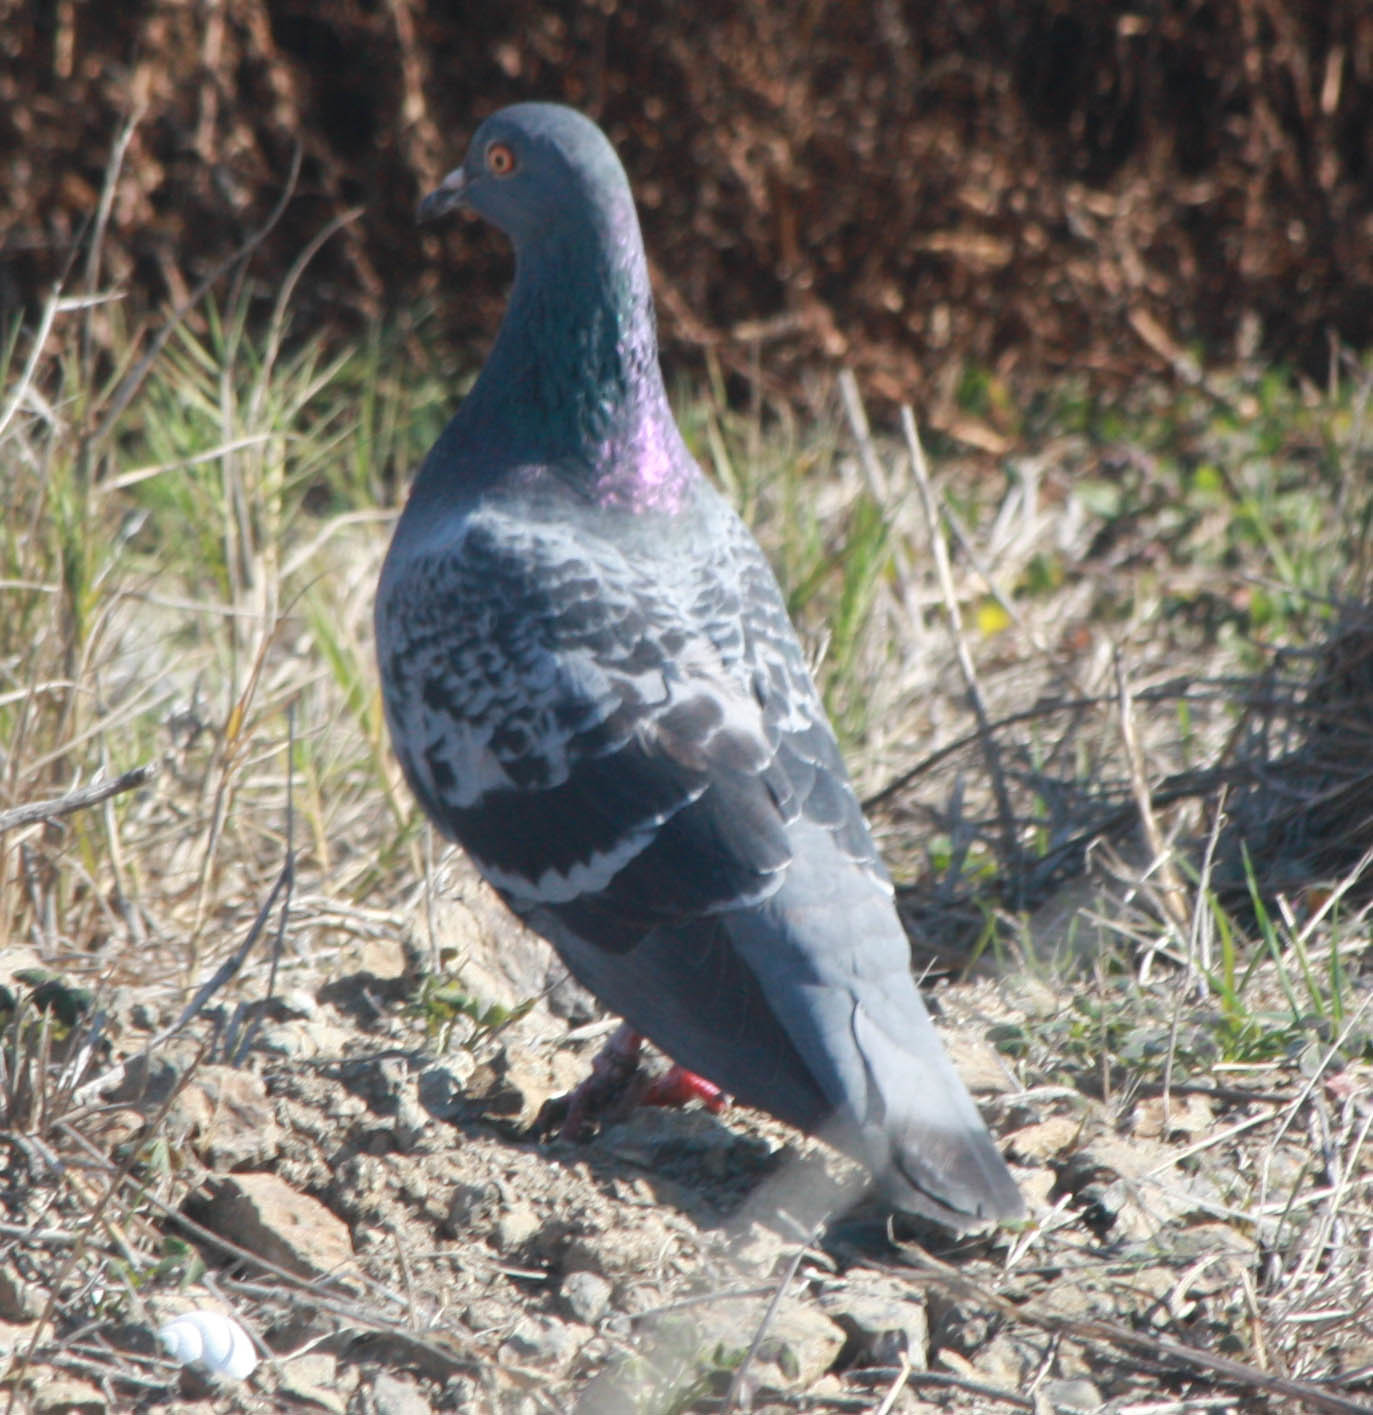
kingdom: Animalia
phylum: Chordata
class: Aves
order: Columbiformes
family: Columbidae
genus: Columba
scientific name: Columba livia
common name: Rock pigeon
